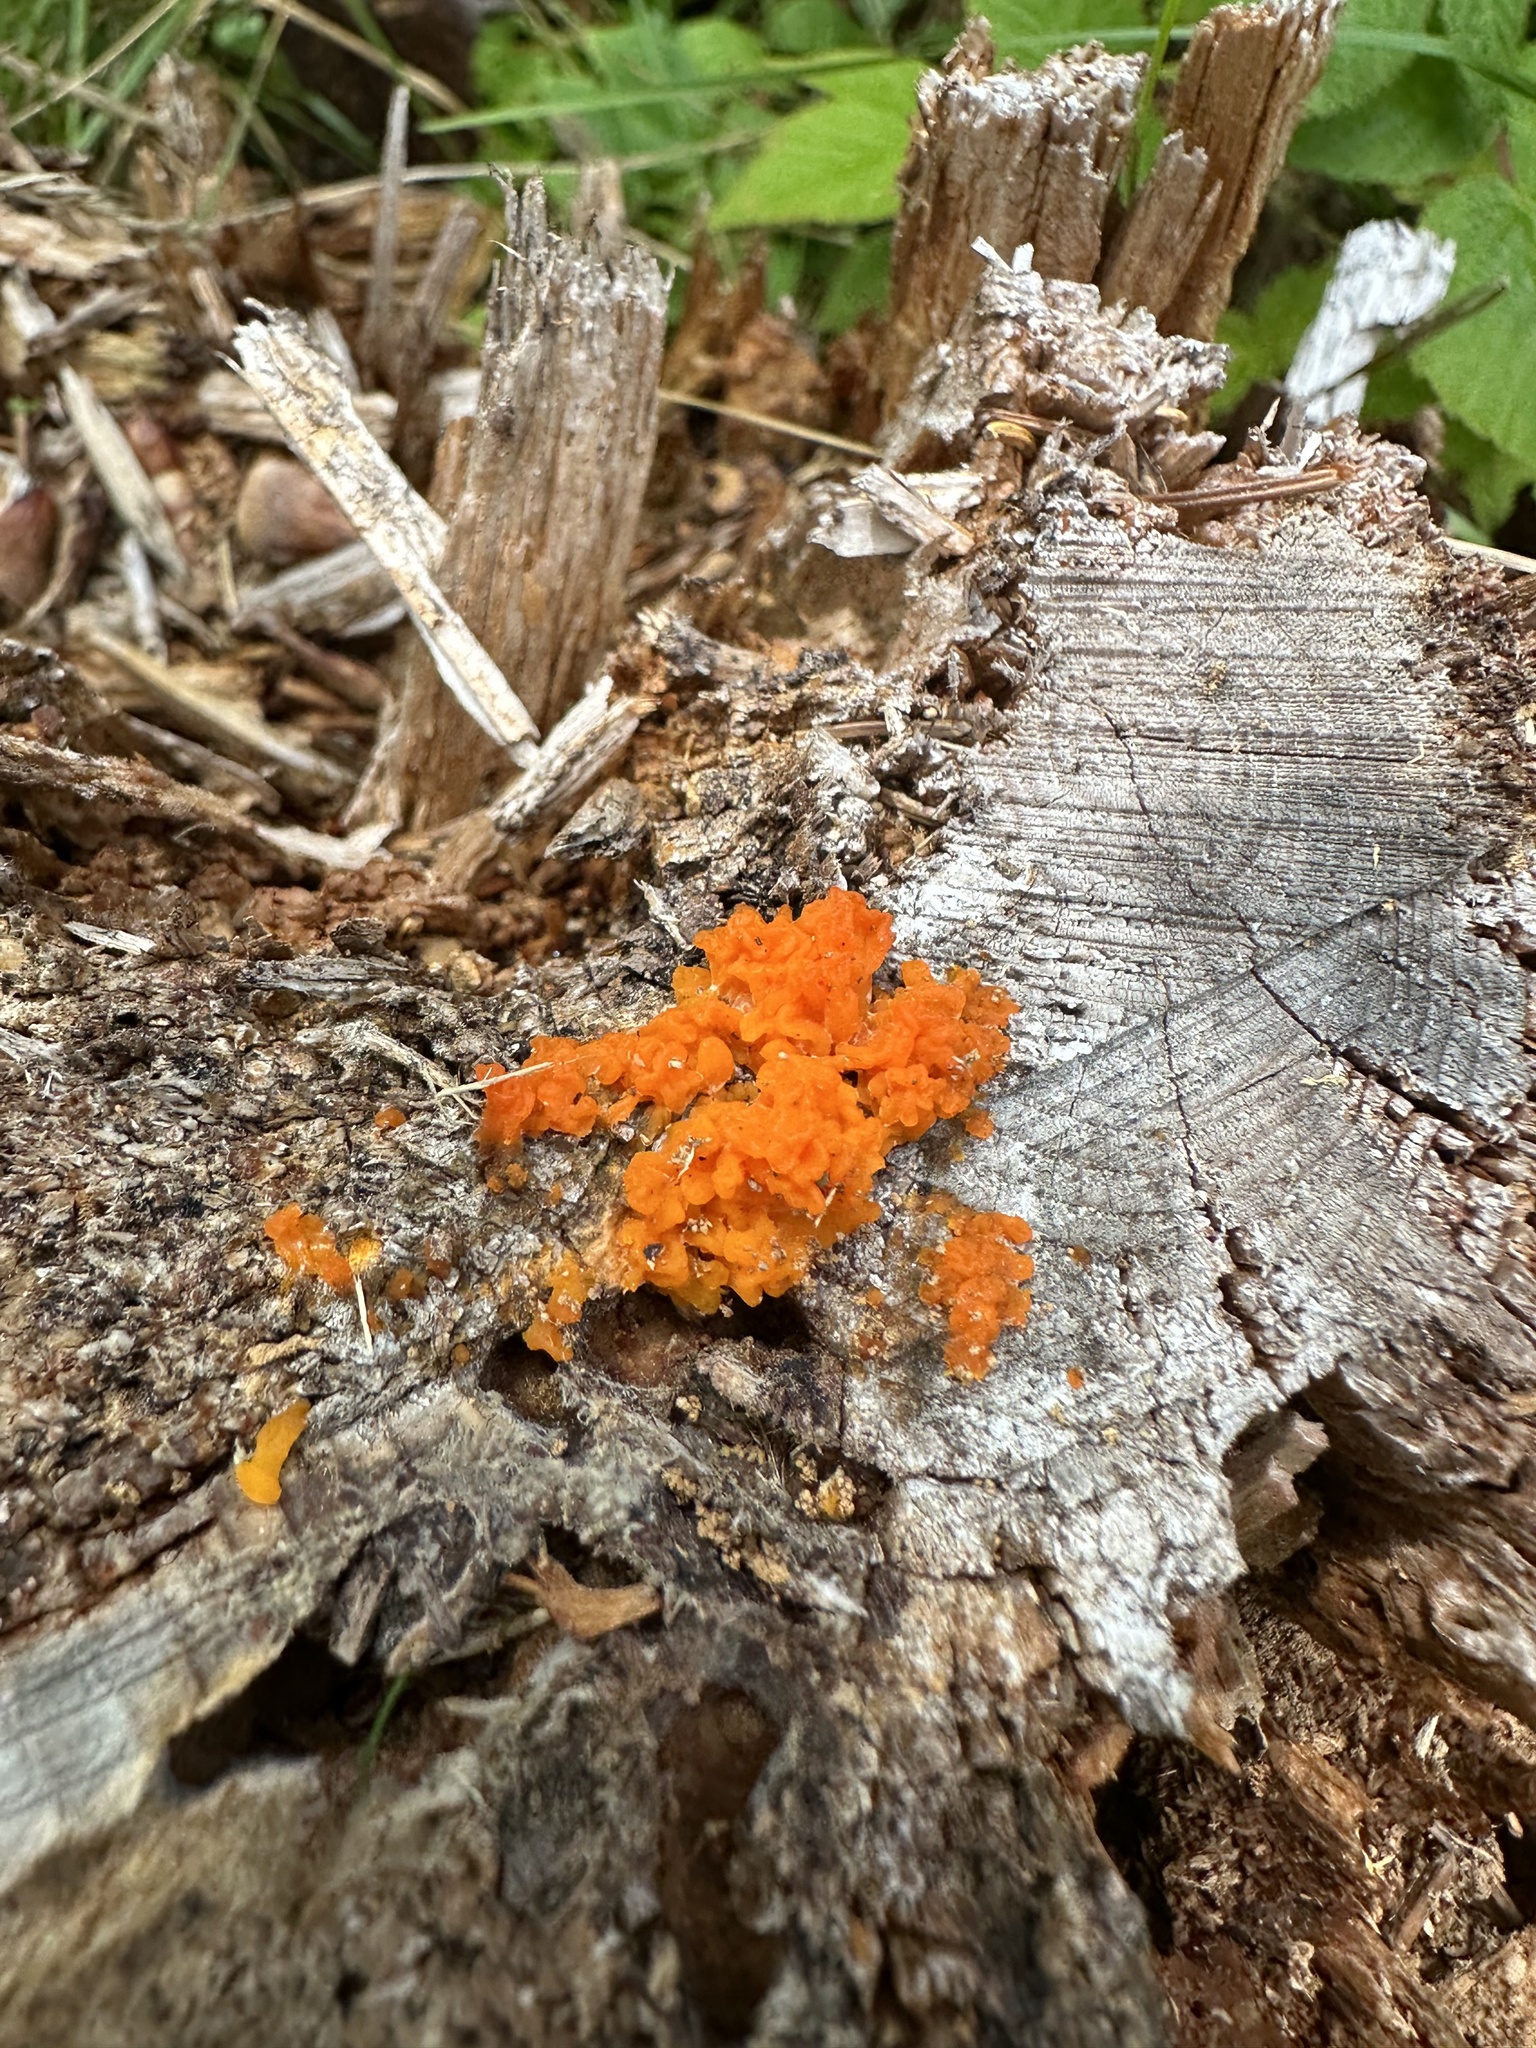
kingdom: Fungi
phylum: Basidiomycota
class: Dacrymycetes
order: Dacrymycetales
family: Dacrymycetaceae
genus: Dacrymyces
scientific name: Dacrymyces chrysospermus
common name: Orange jelly spot
